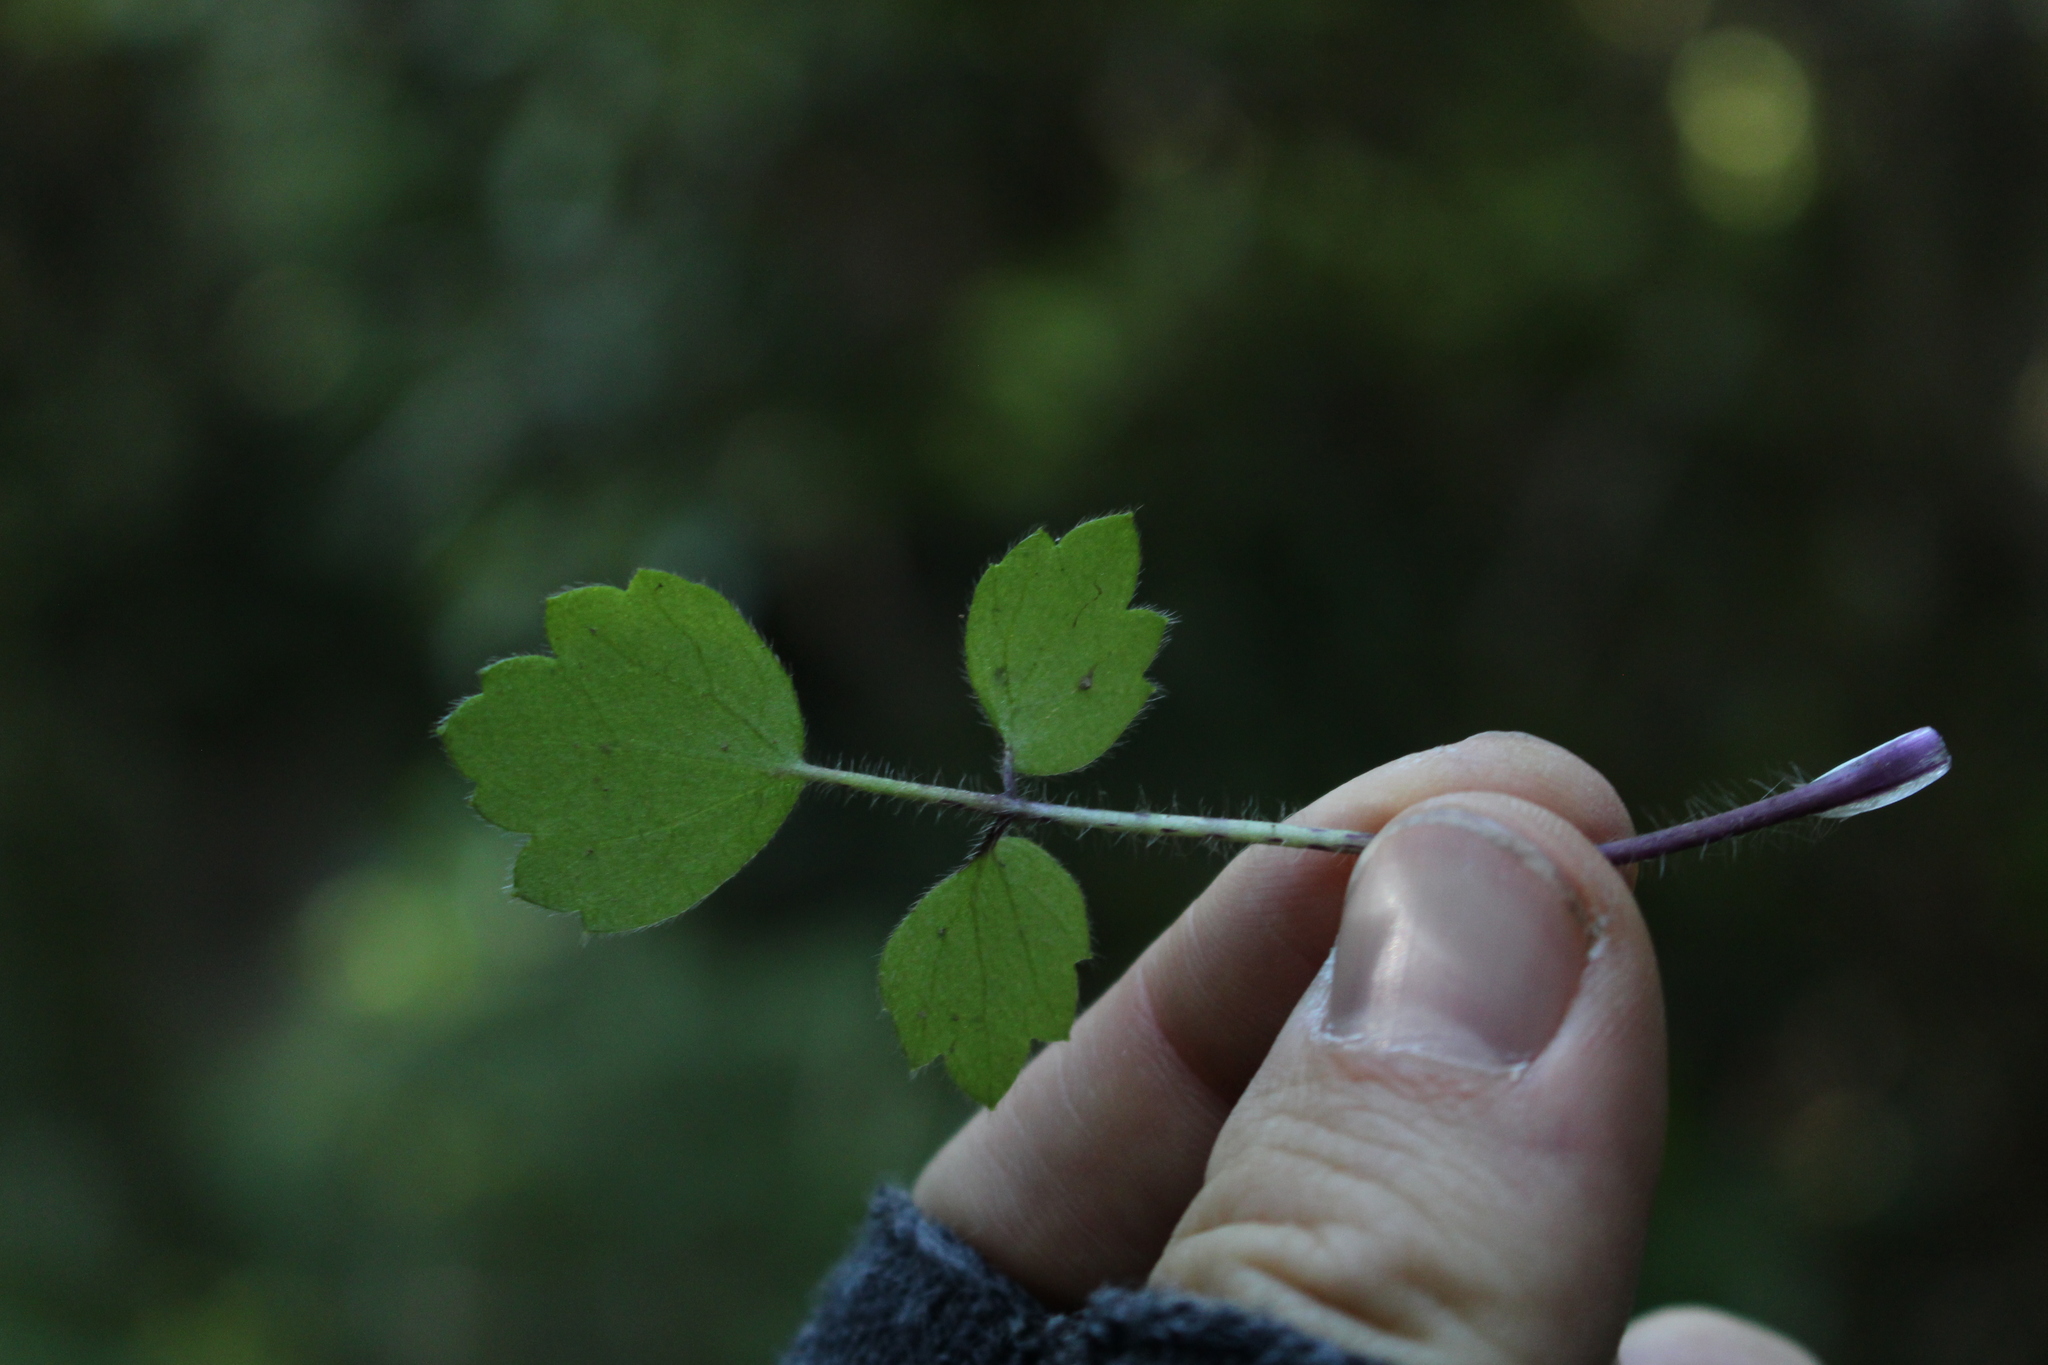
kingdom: Plantae
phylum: Tracheophyta
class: Magnoliopsida
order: Ranunculales
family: Ranunculaceae
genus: Ranunculus
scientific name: Ranunculus reflexus
